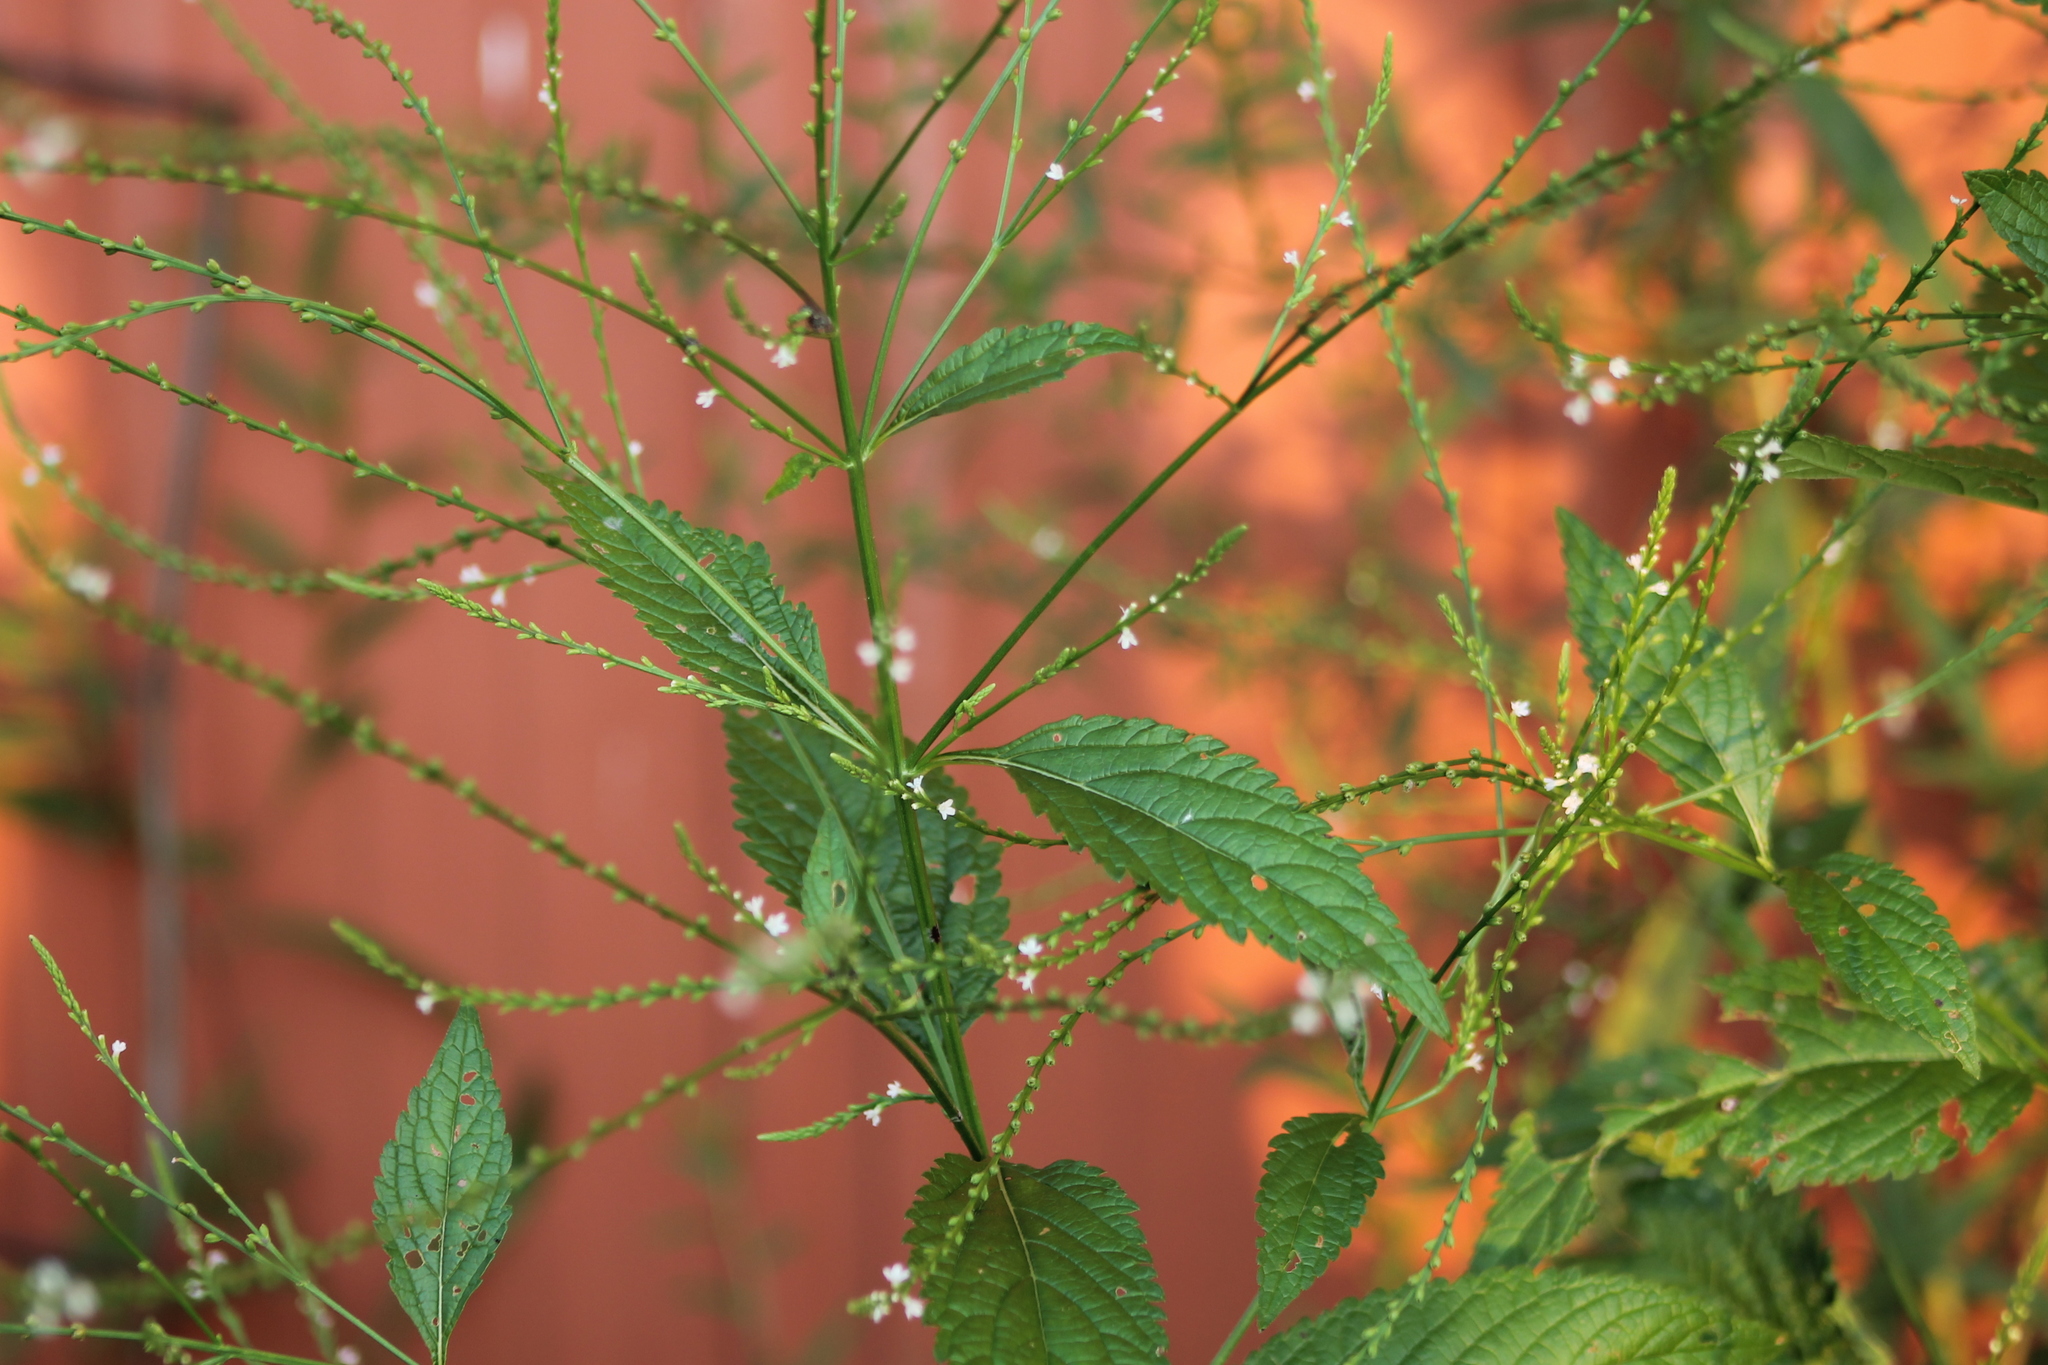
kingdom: Plantae
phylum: Tracheophyta
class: Magnoliopsida
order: Lamiales
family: Verbenaceae
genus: Verbena
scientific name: Verbena urticifolia
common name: Nettle-leaved vervain
